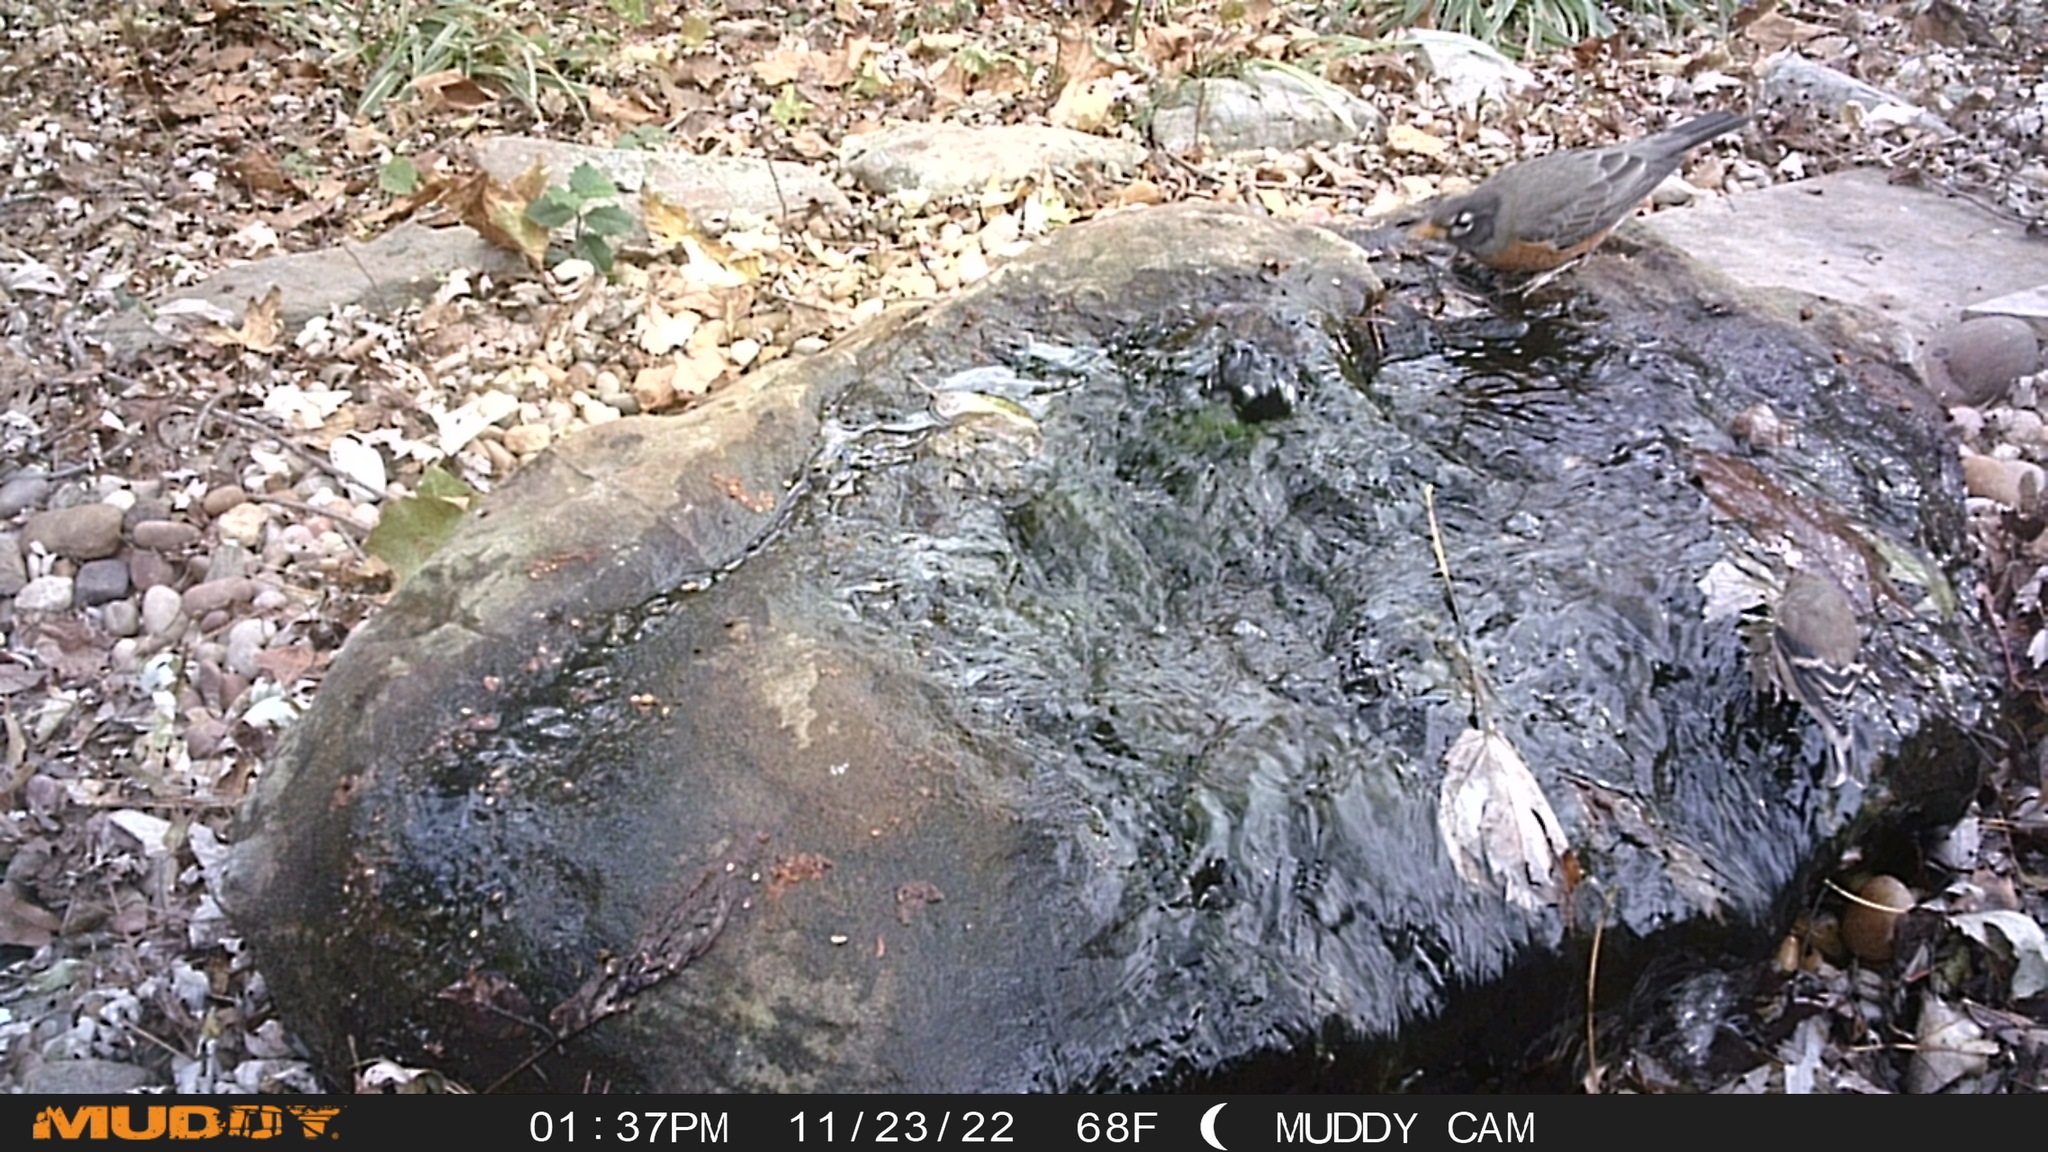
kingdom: Animalia
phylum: Chordata
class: Aves
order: Passeriformes
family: Turdidae
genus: Turdus
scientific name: Turdus migratorius
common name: American robin
